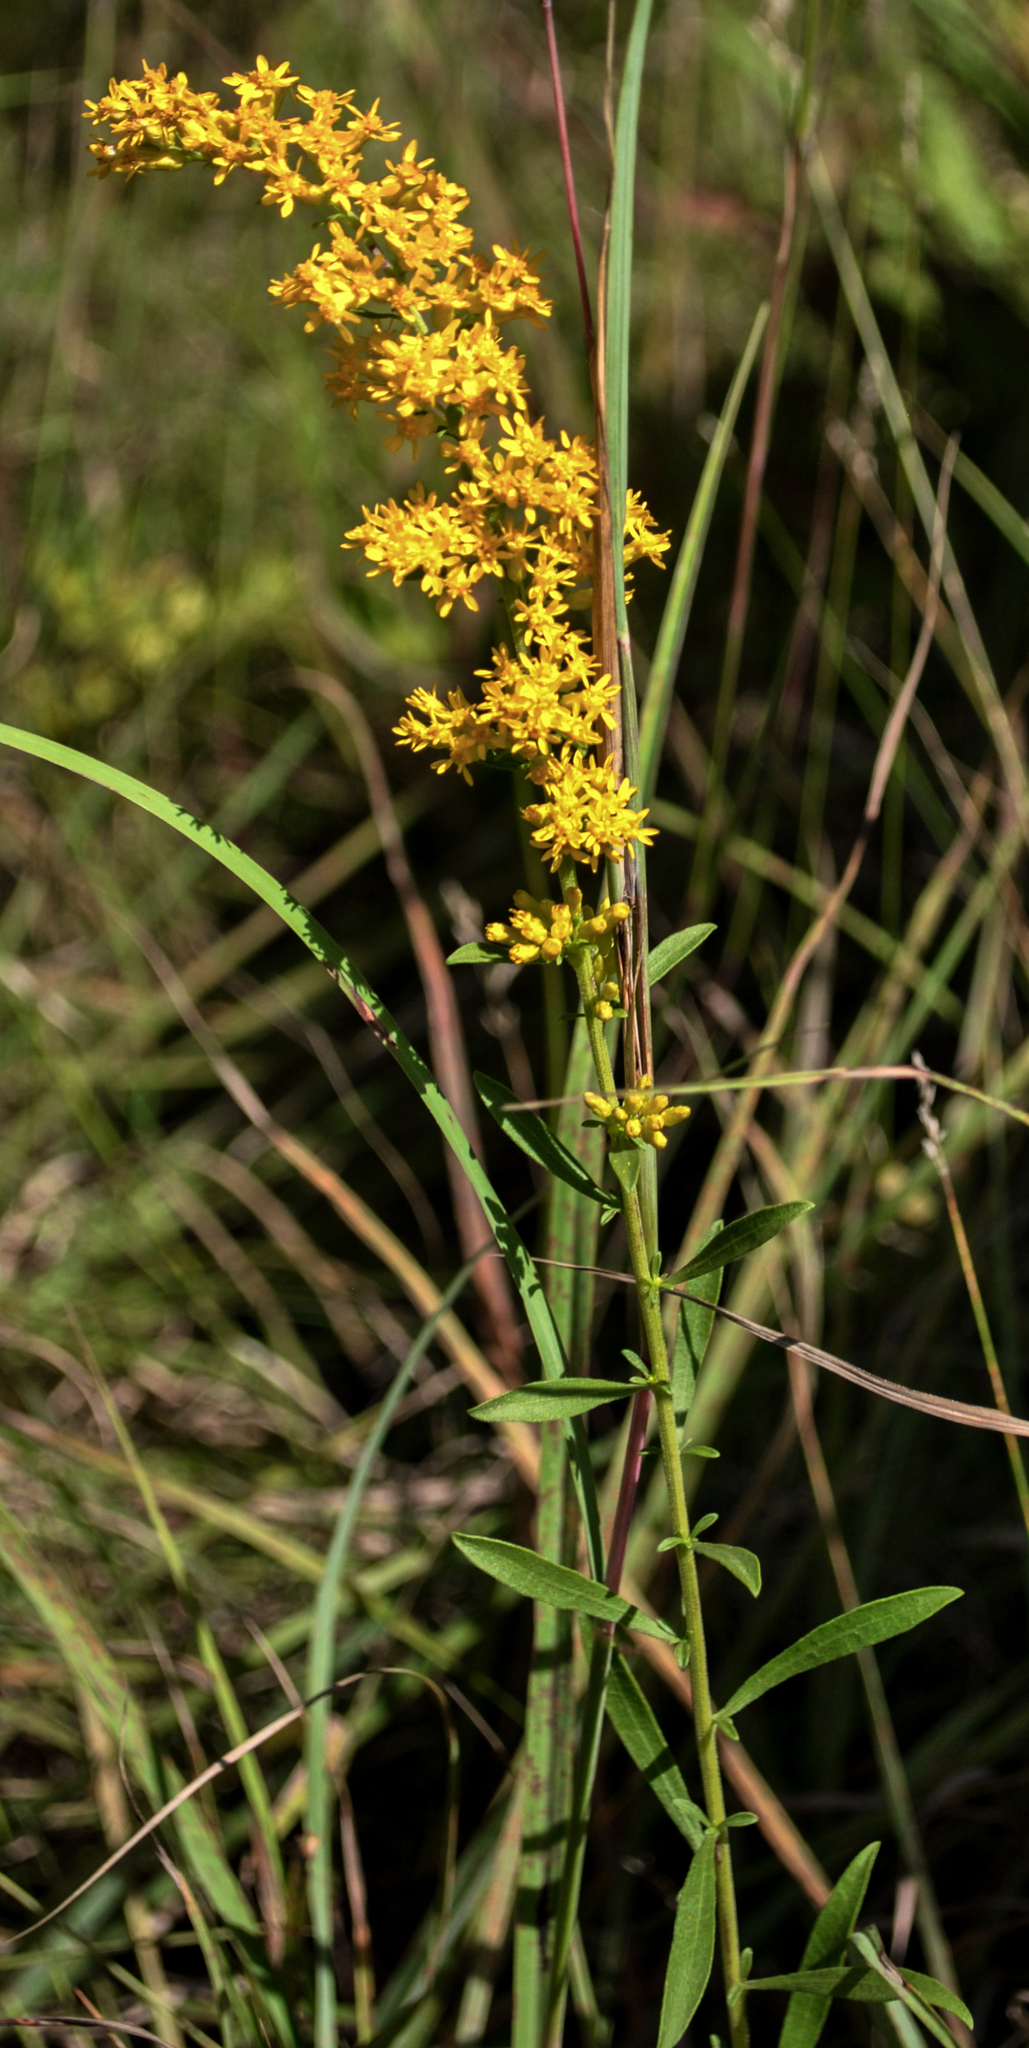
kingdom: Plantae
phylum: Tracheophyta
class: Magnoliopsida
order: Asterales
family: Asteraceae
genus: Solidago
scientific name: Solidago nemoralis
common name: Grey goldenrod
